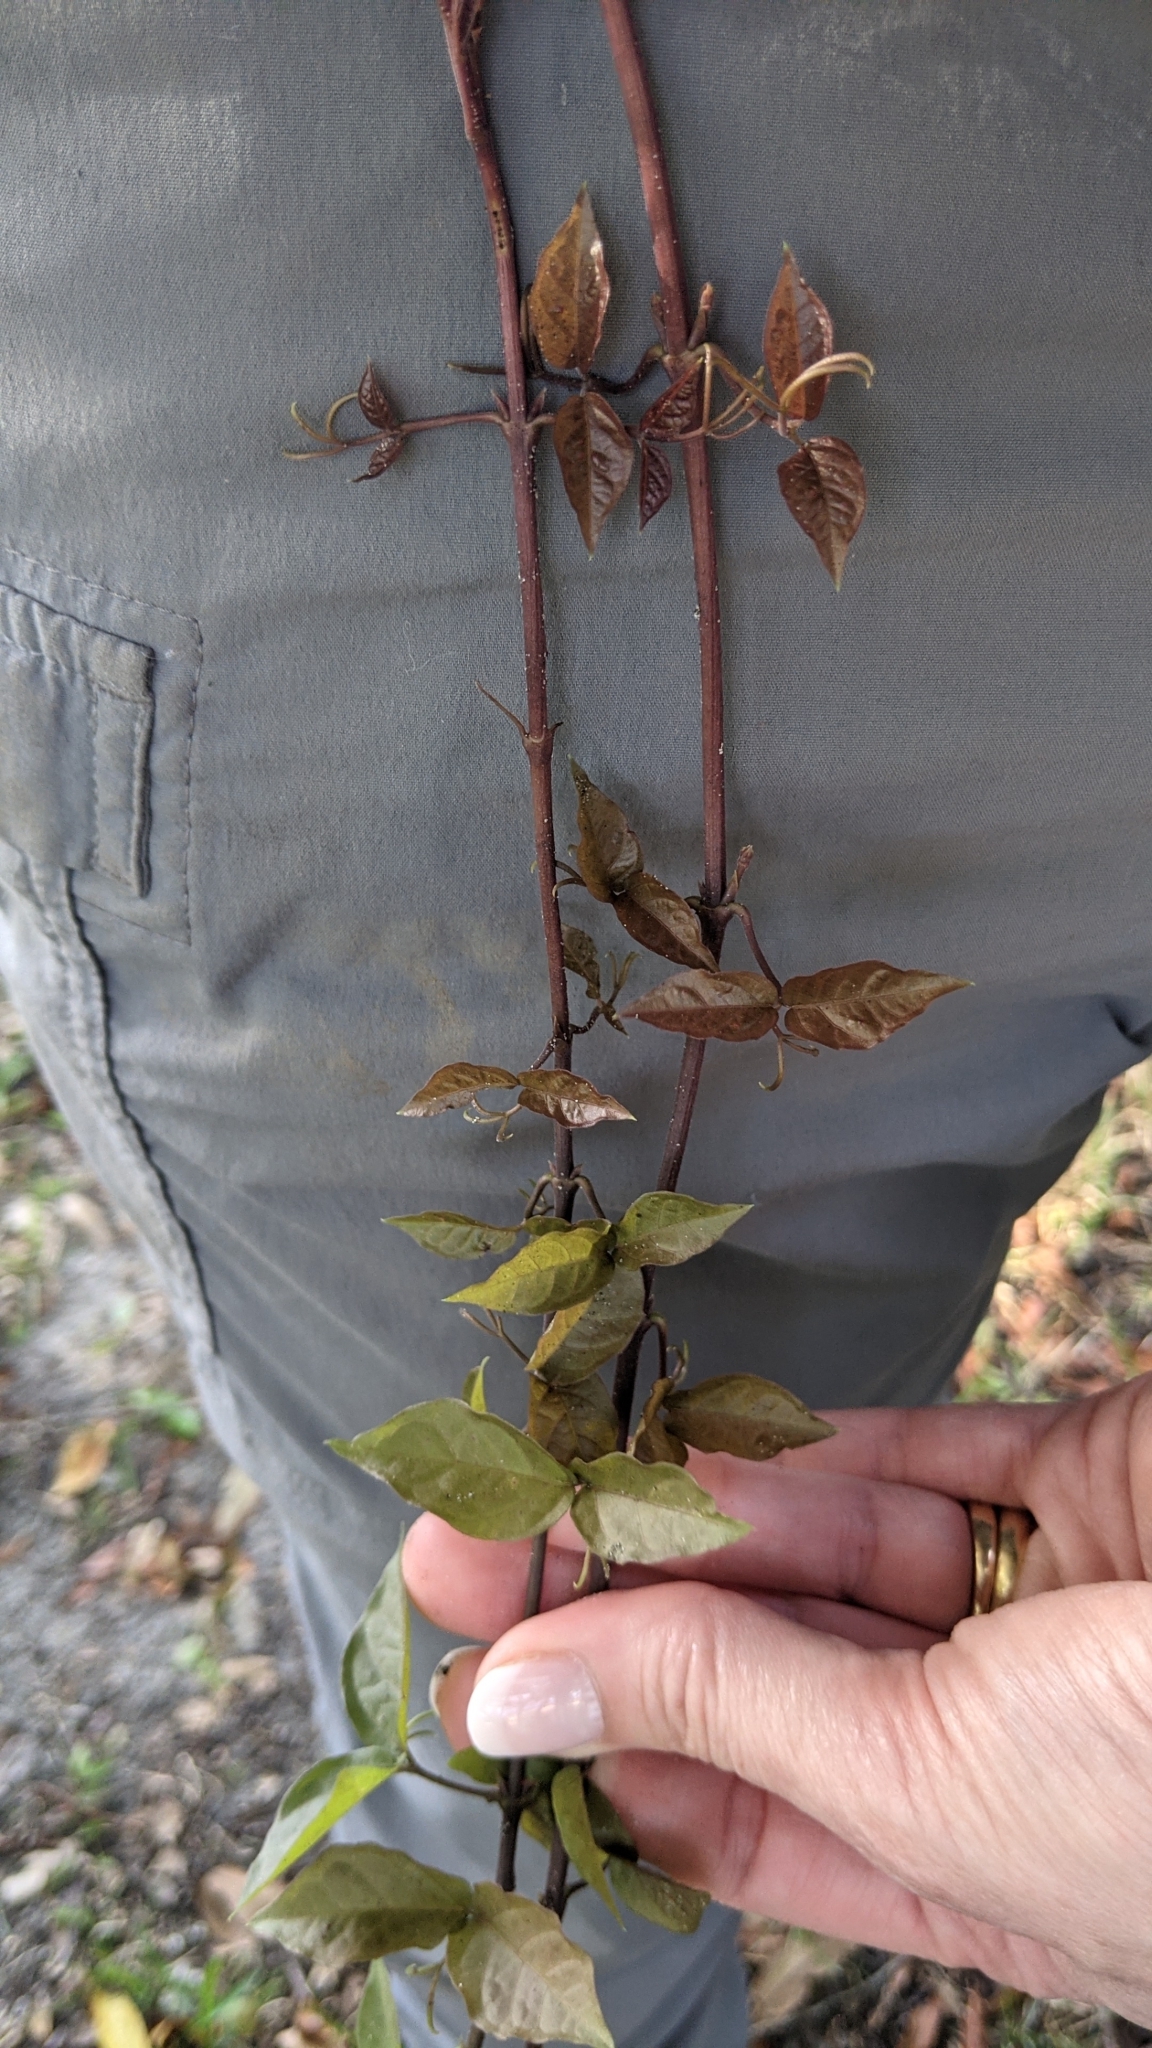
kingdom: Plantae
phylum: Tracheophyta
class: Magnoliopsida
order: Lamiales
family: Bignoniaceae
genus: Dolichandra
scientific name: Dolichandra unguis-cati
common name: Catclaw vine
